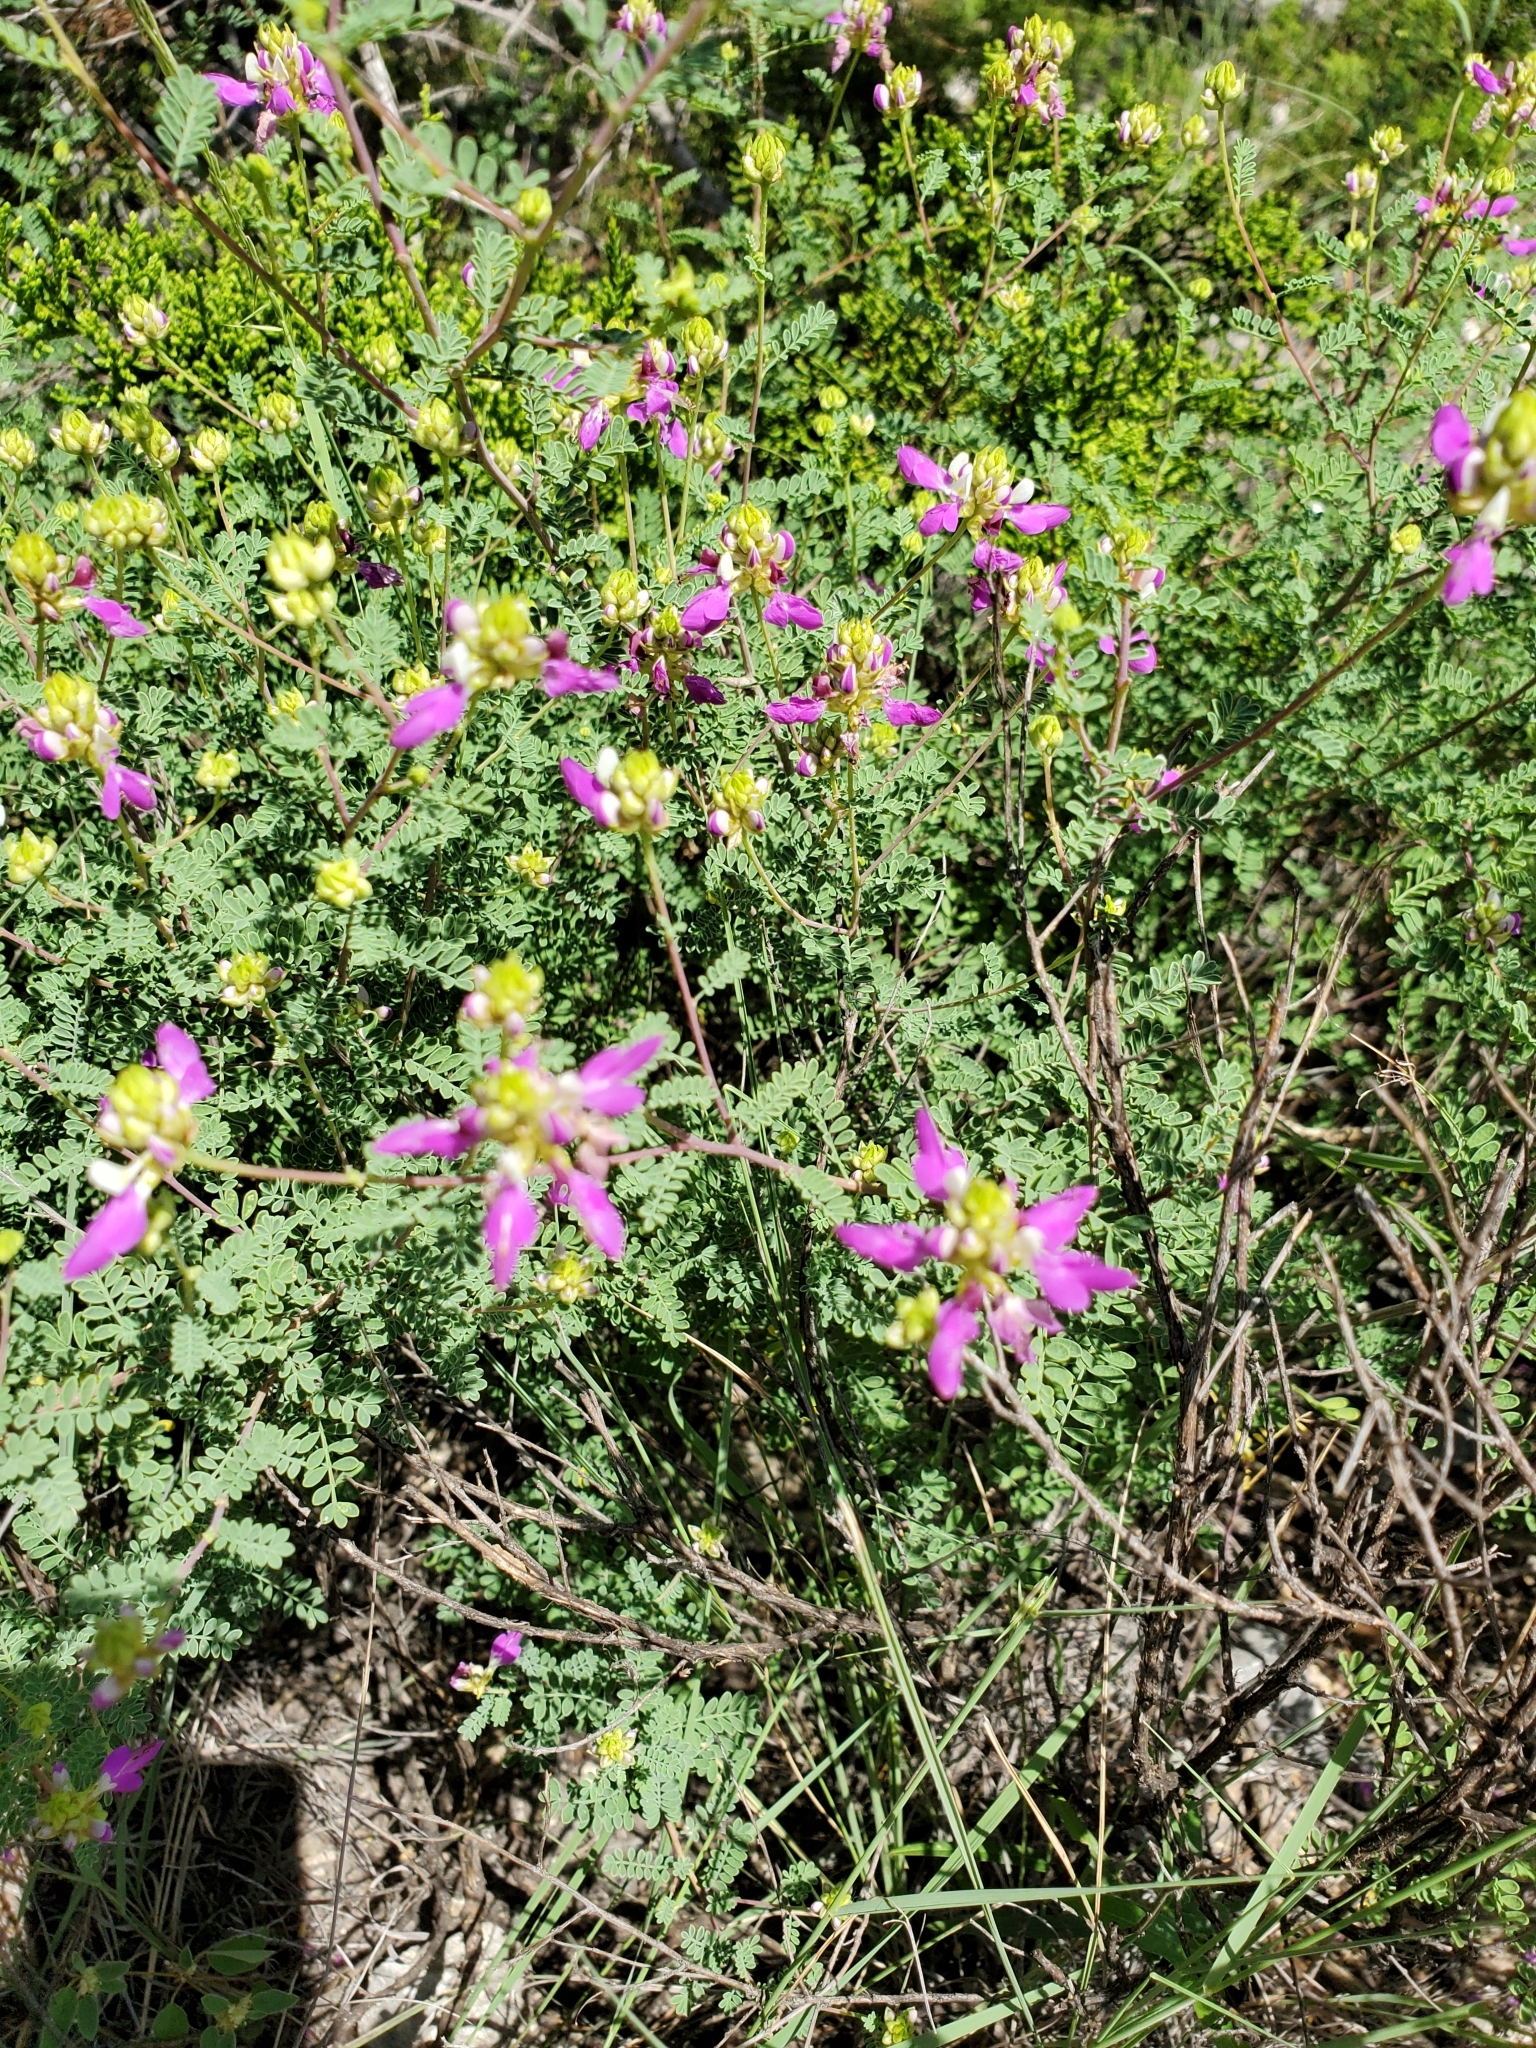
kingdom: Plantae
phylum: Tracheophyta
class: Magnoliopsida
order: Fabales
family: Fabaceae
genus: Dalea
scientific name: Dalea frutescens
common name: Black dalea
